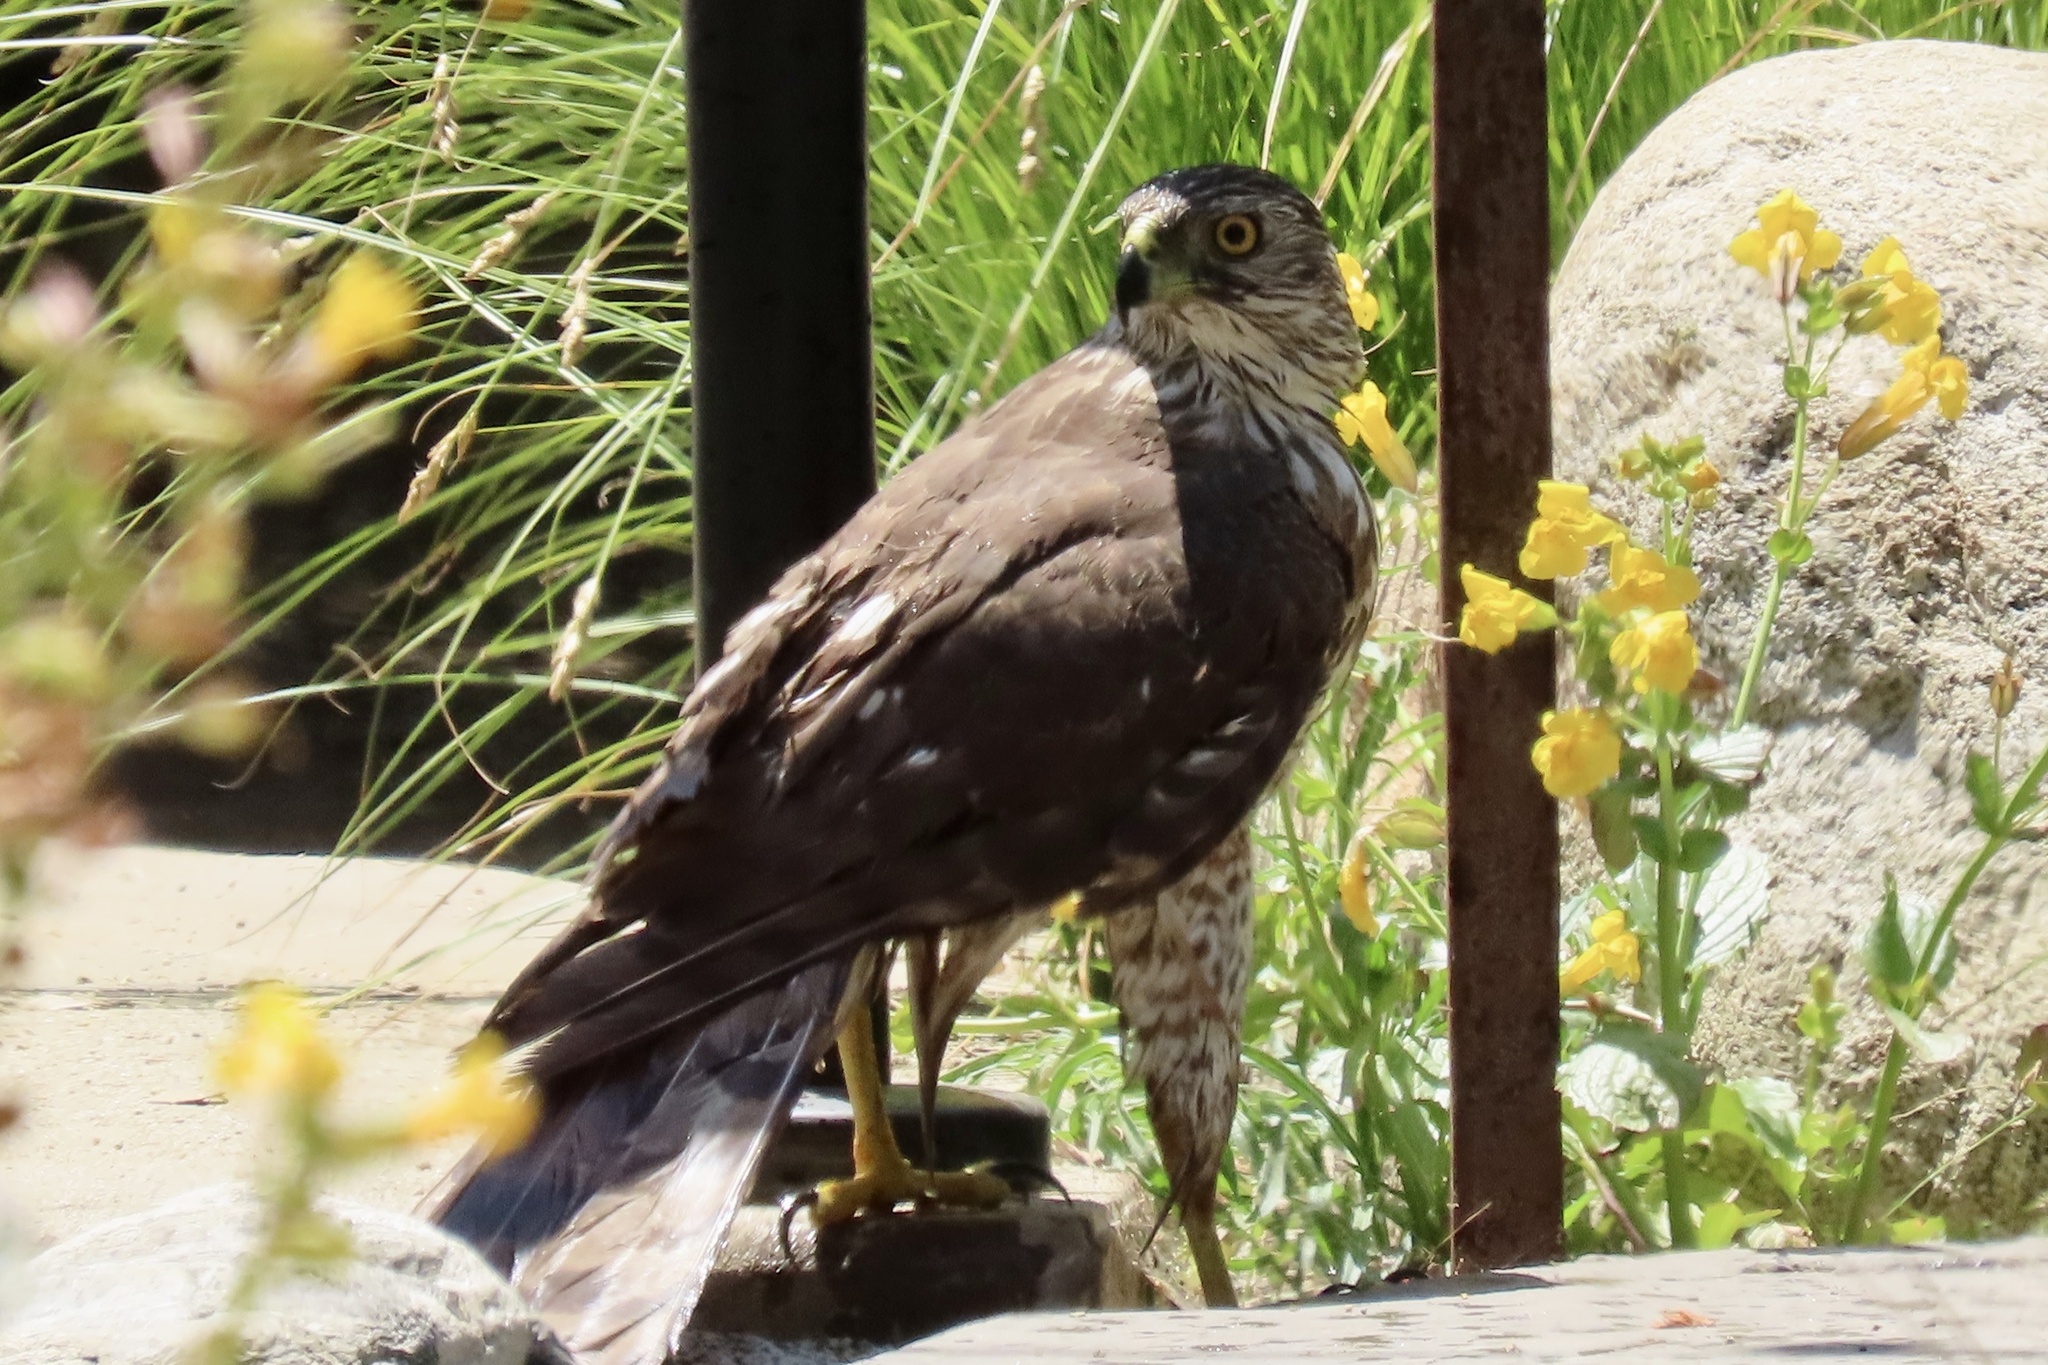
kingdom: Animalia
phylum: Chordata
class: Aves
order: Accipitriformes
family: Accipitridae
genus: Accipiter
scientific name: Accipiter cooperii
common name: Cooper's hawk
